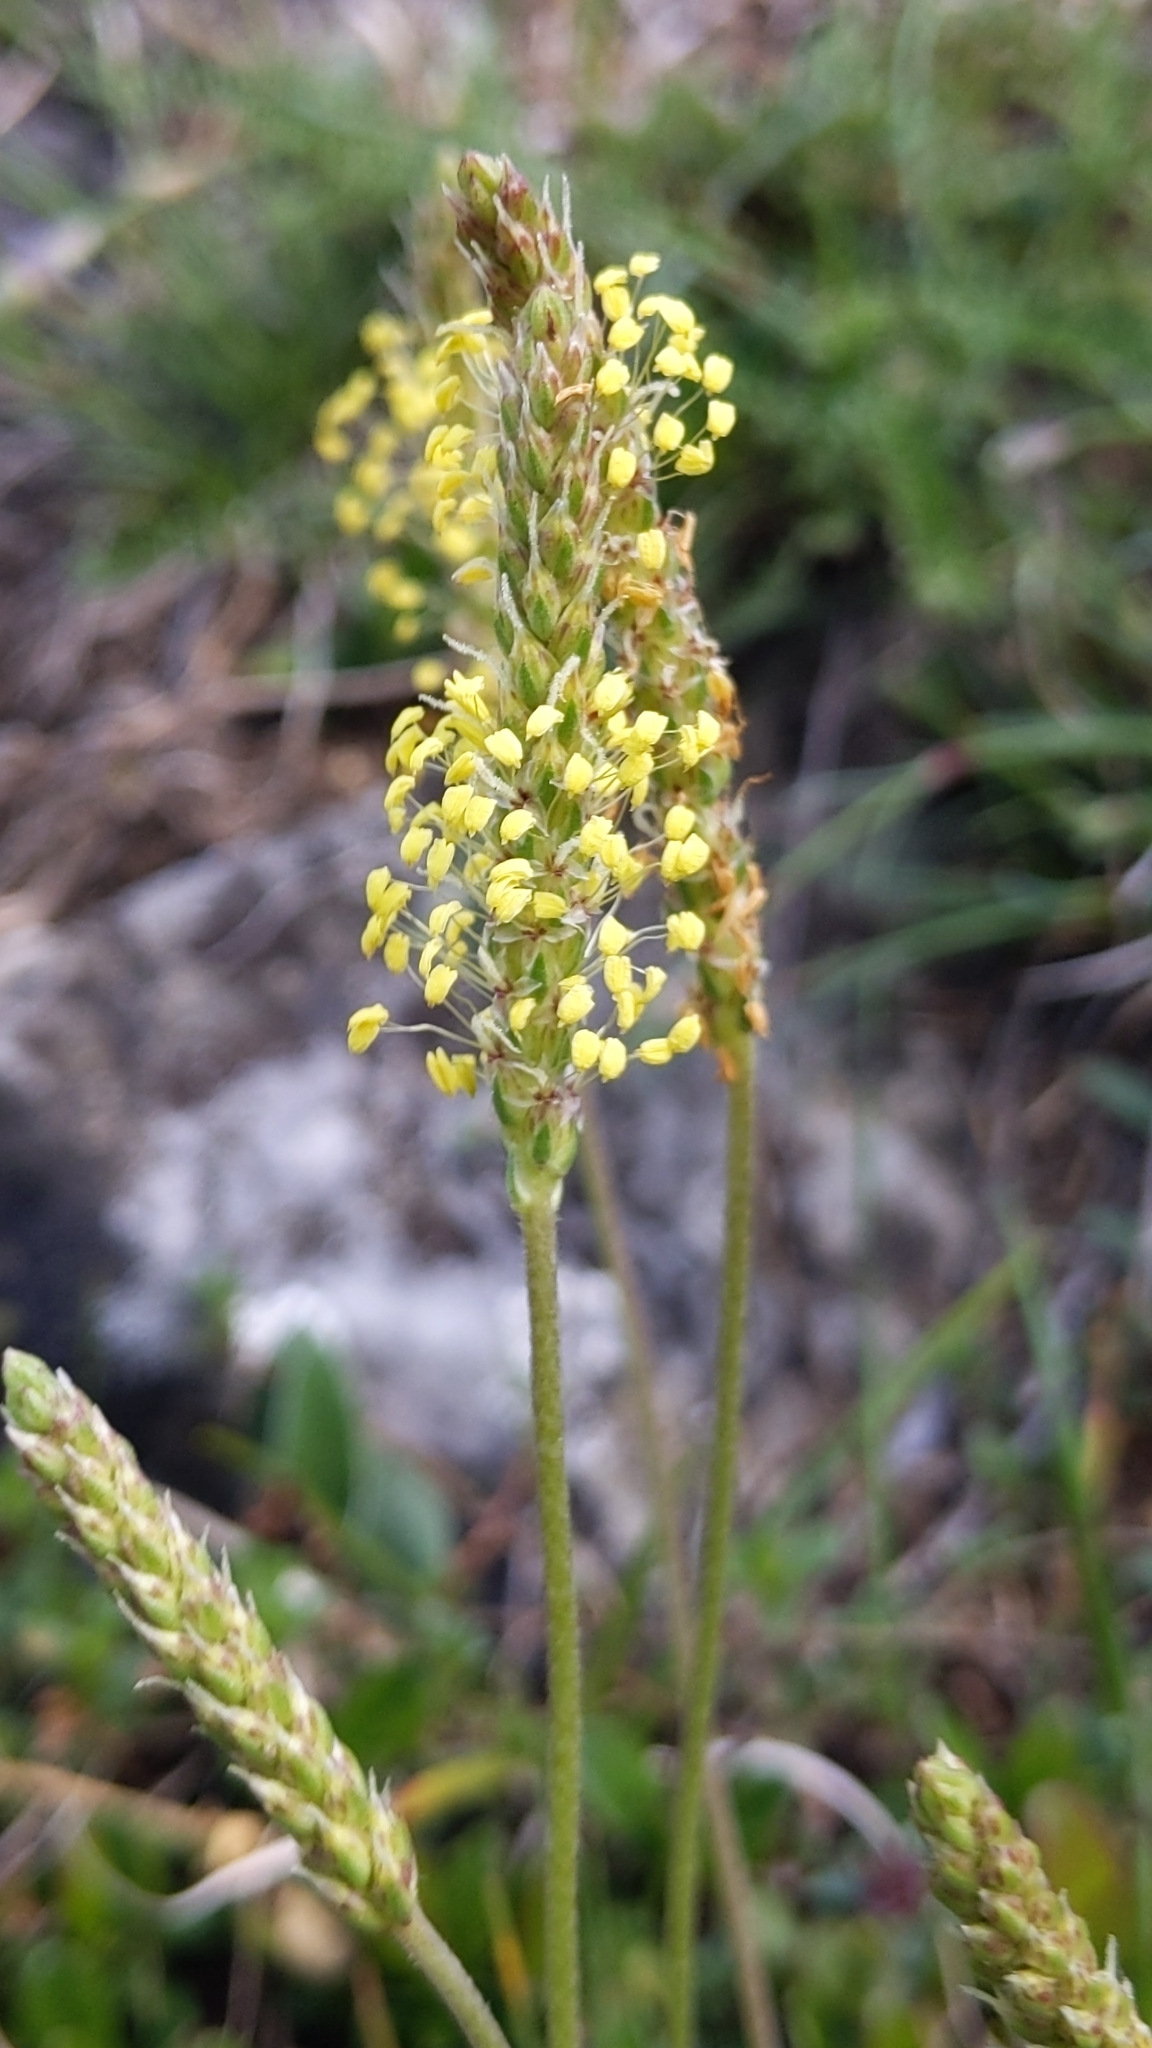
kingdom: Plantae
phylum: Tracheophyta
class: Magnoliopsida
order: Lamiales
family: Plantaginaceae
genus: Plantago
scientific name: Plantago alpina
